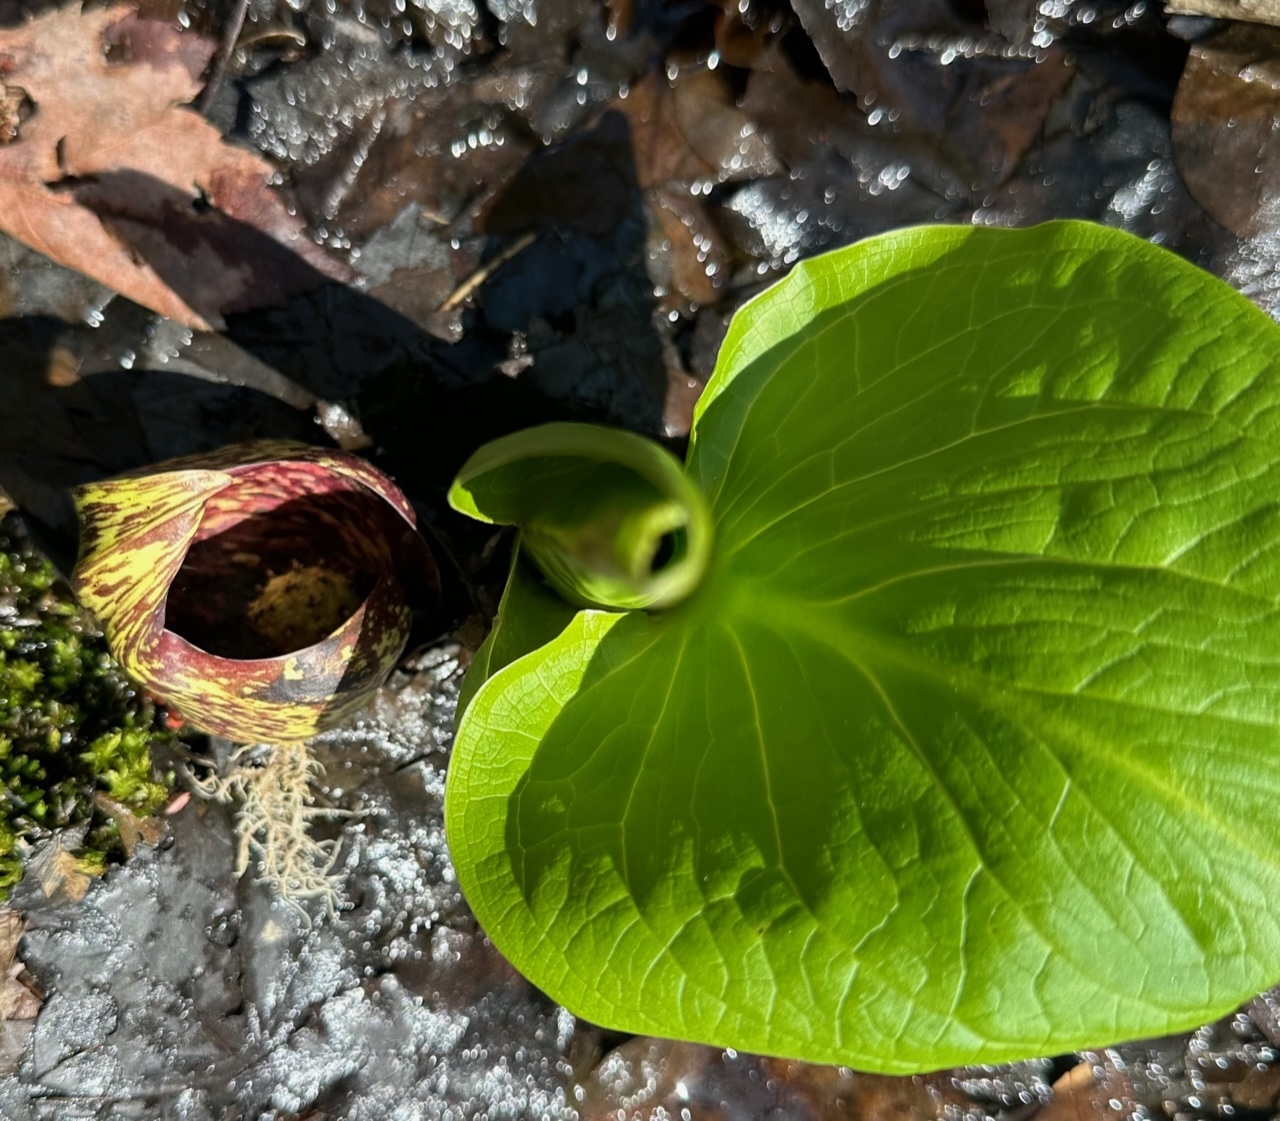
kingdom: Plantae
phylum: Tracheophyta
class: Liliopsida
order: Alismatales
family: Araceae
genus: Symplocarpus
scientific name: Symplocarpus foetidus
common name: Eastern skunk cabbage
